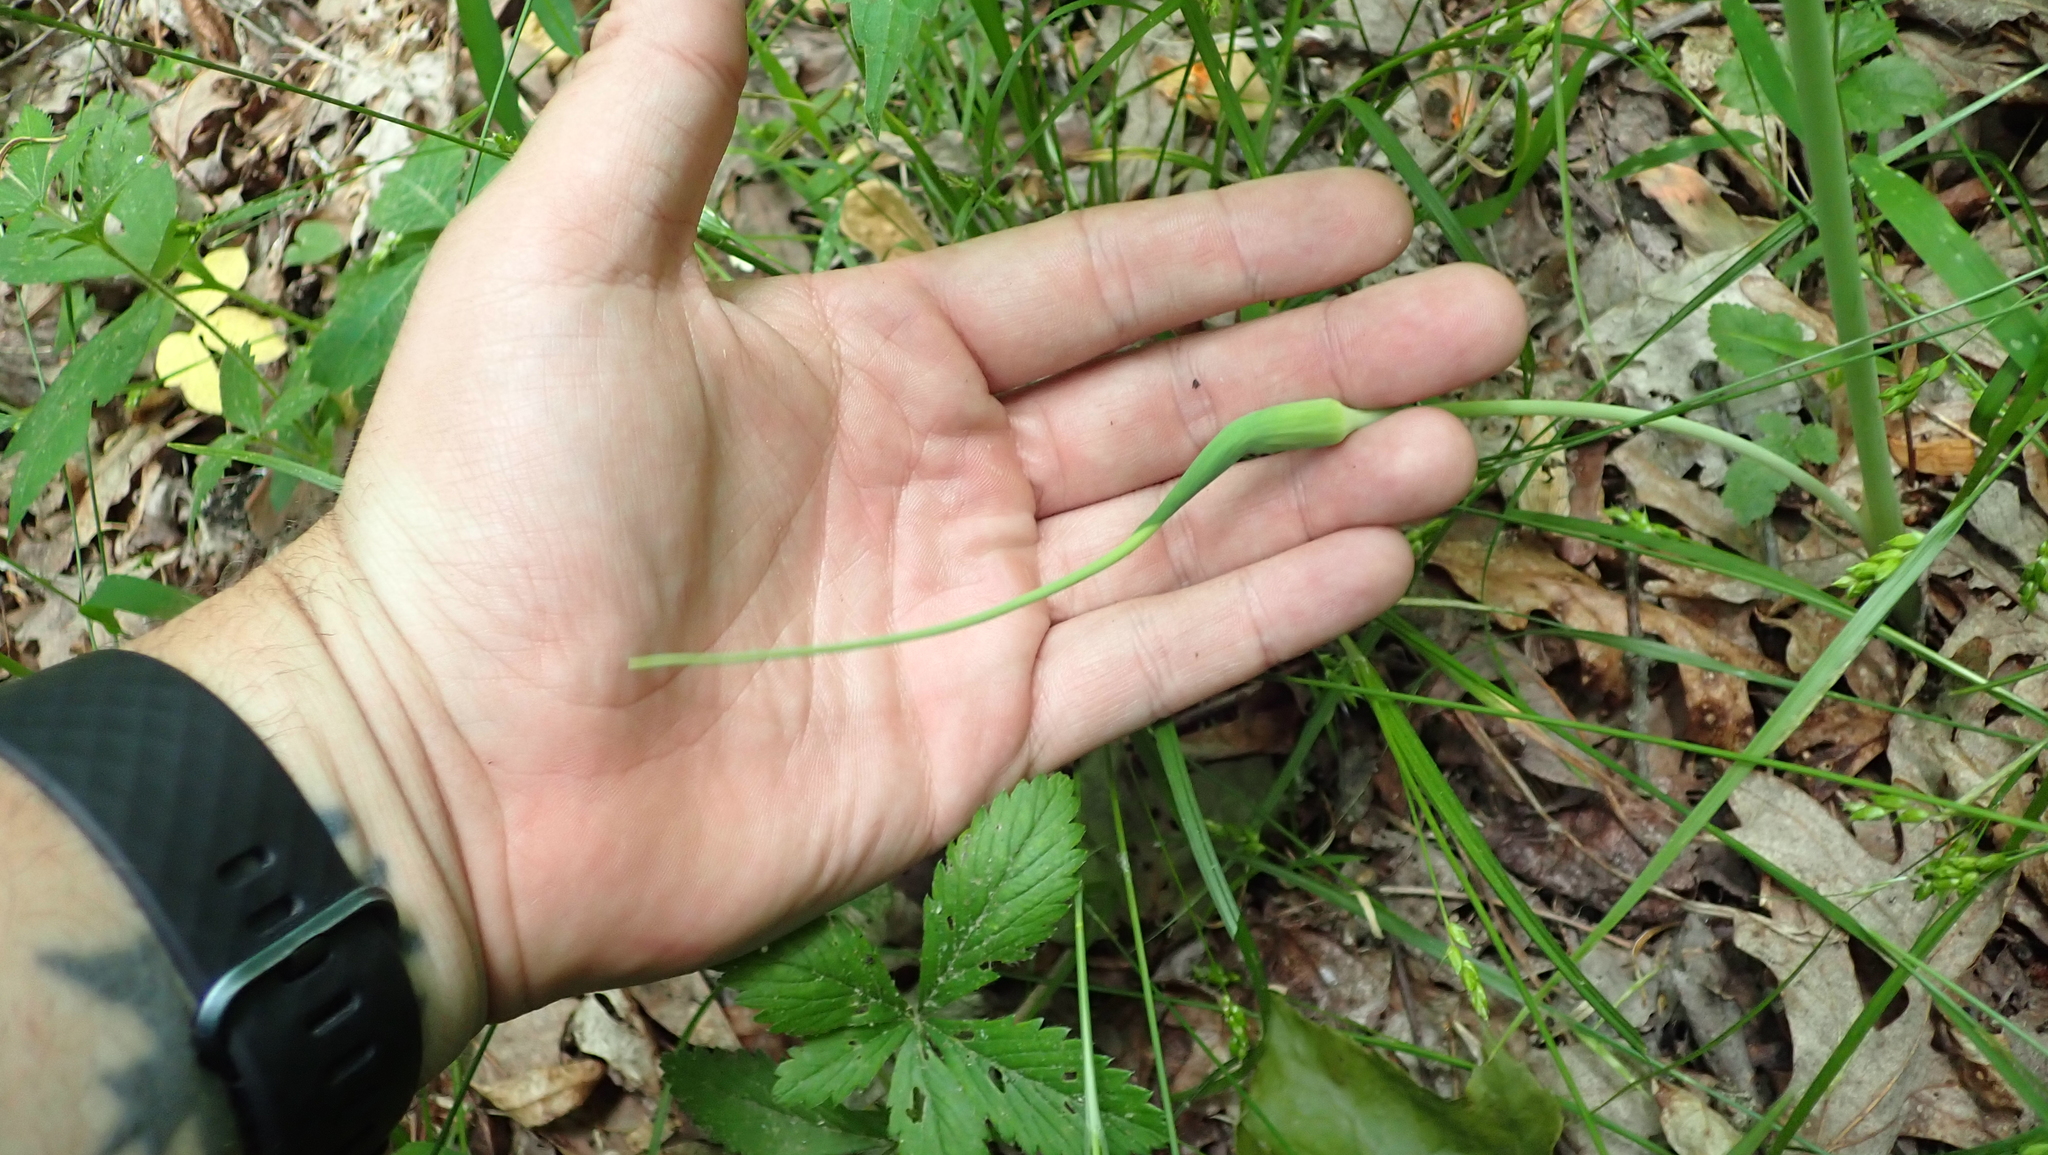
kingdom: Plantae
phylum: Tracheophyta
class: Liliopsida
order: Alismatales
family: Araceae
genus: Arisaema
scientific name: Arisaema dracontium
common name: Dragon-arum
